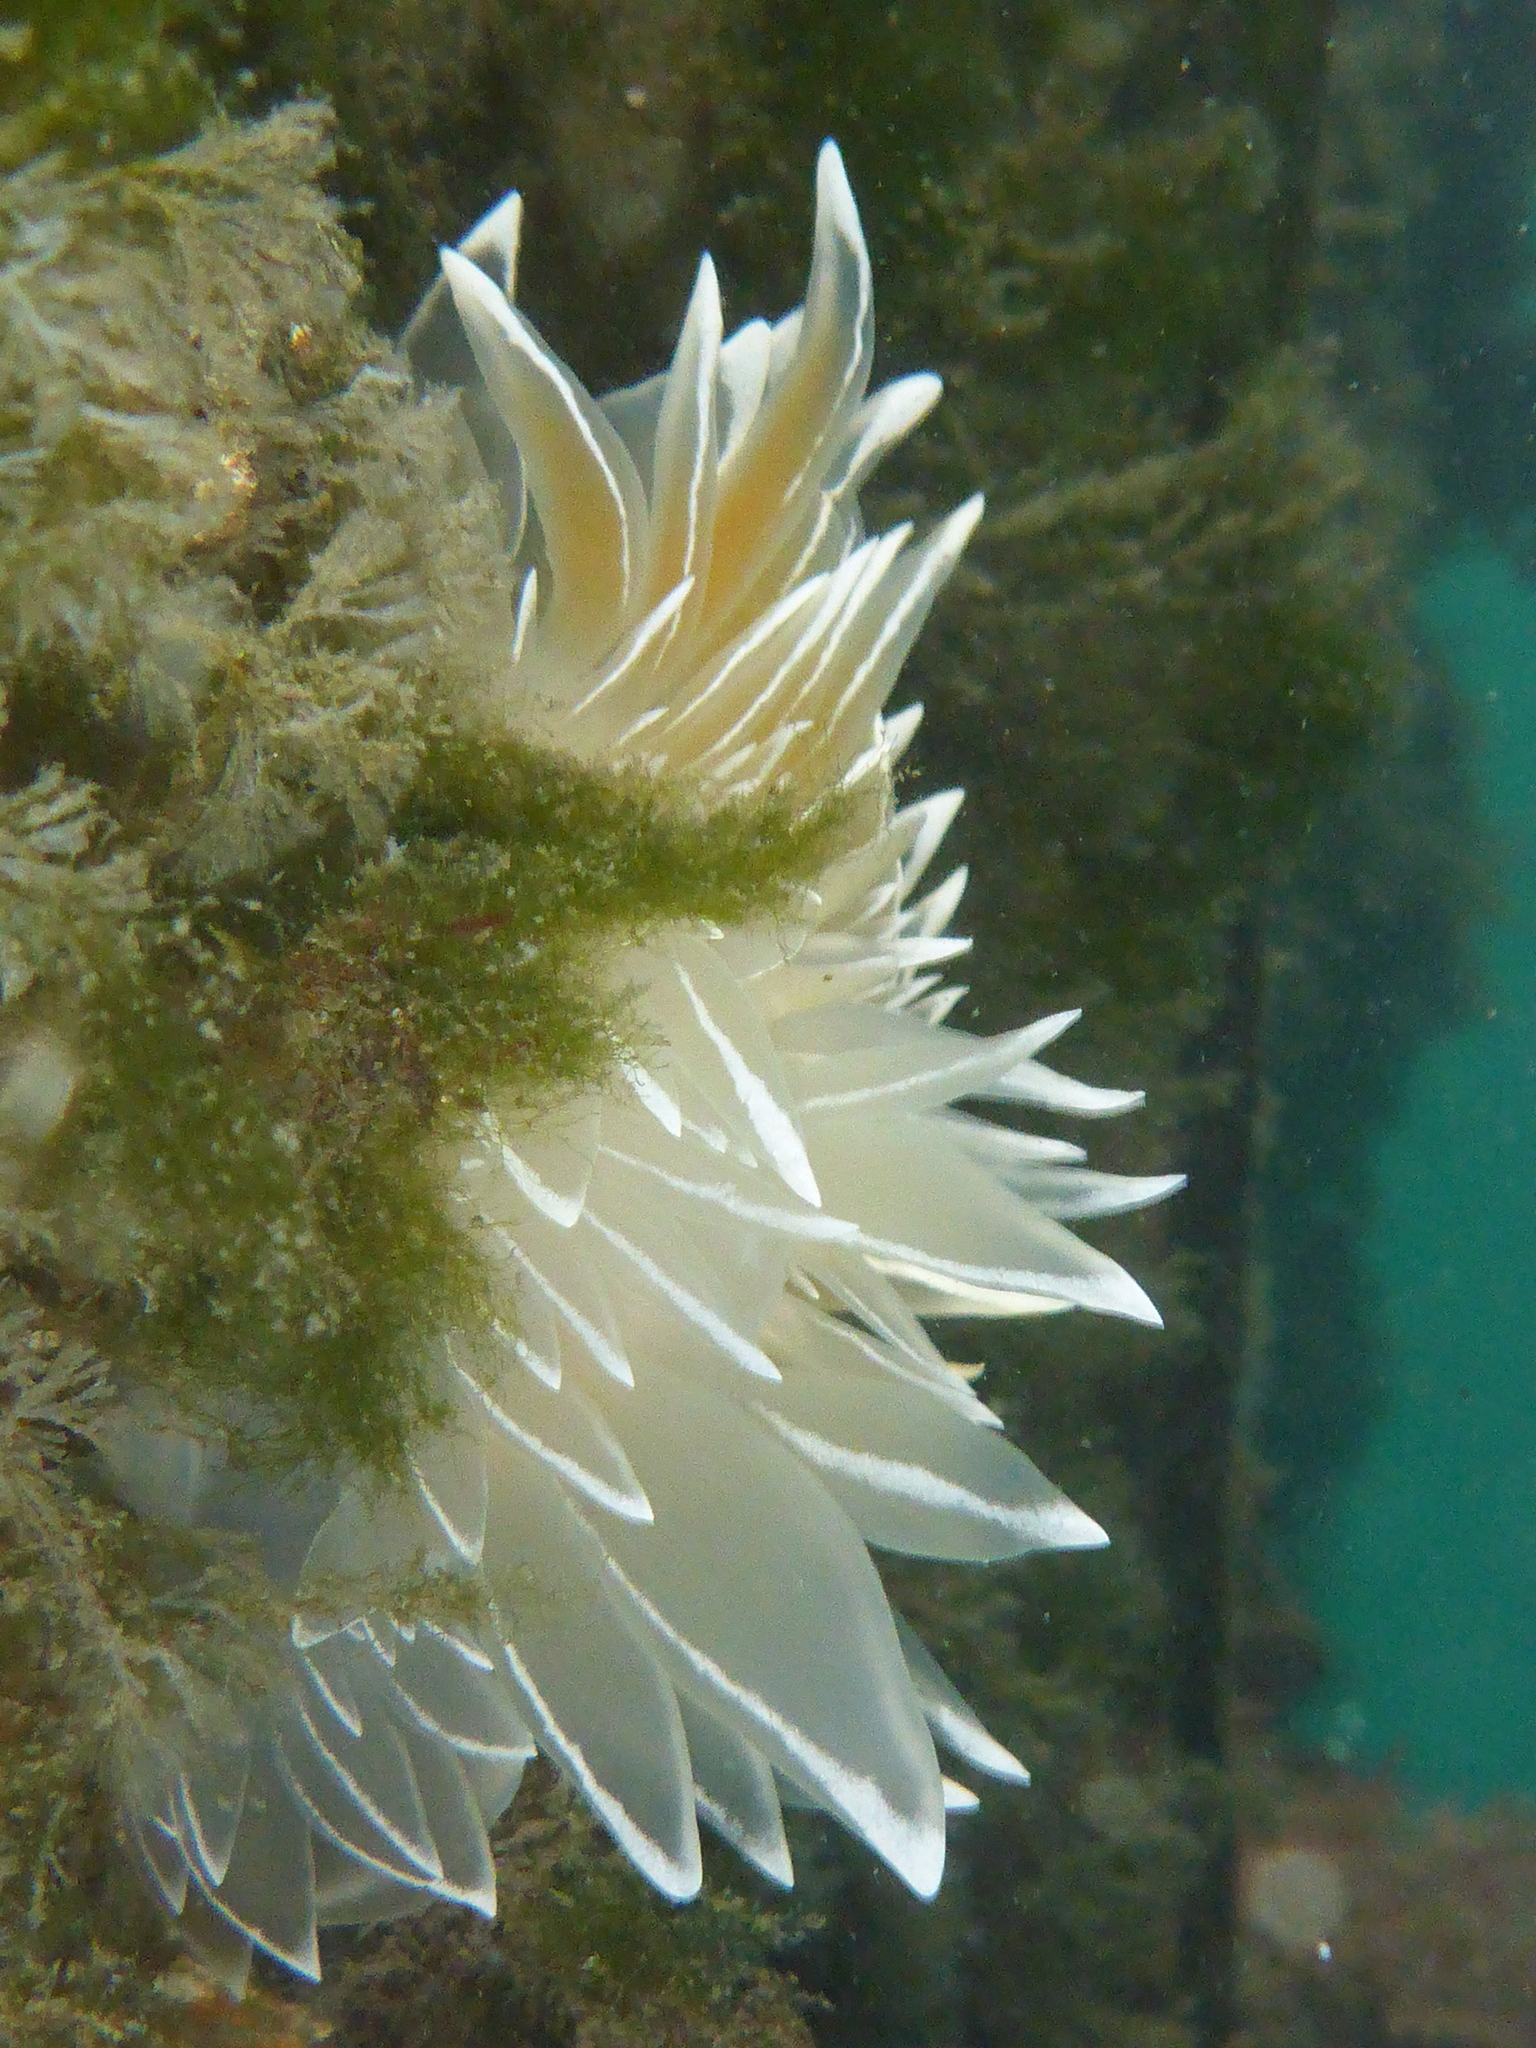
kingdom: Animalia
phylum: Mollusca
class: Gastropoda
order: Nudibranchia
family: Dironidae
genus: Dirona
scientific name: Dirona albolineata
